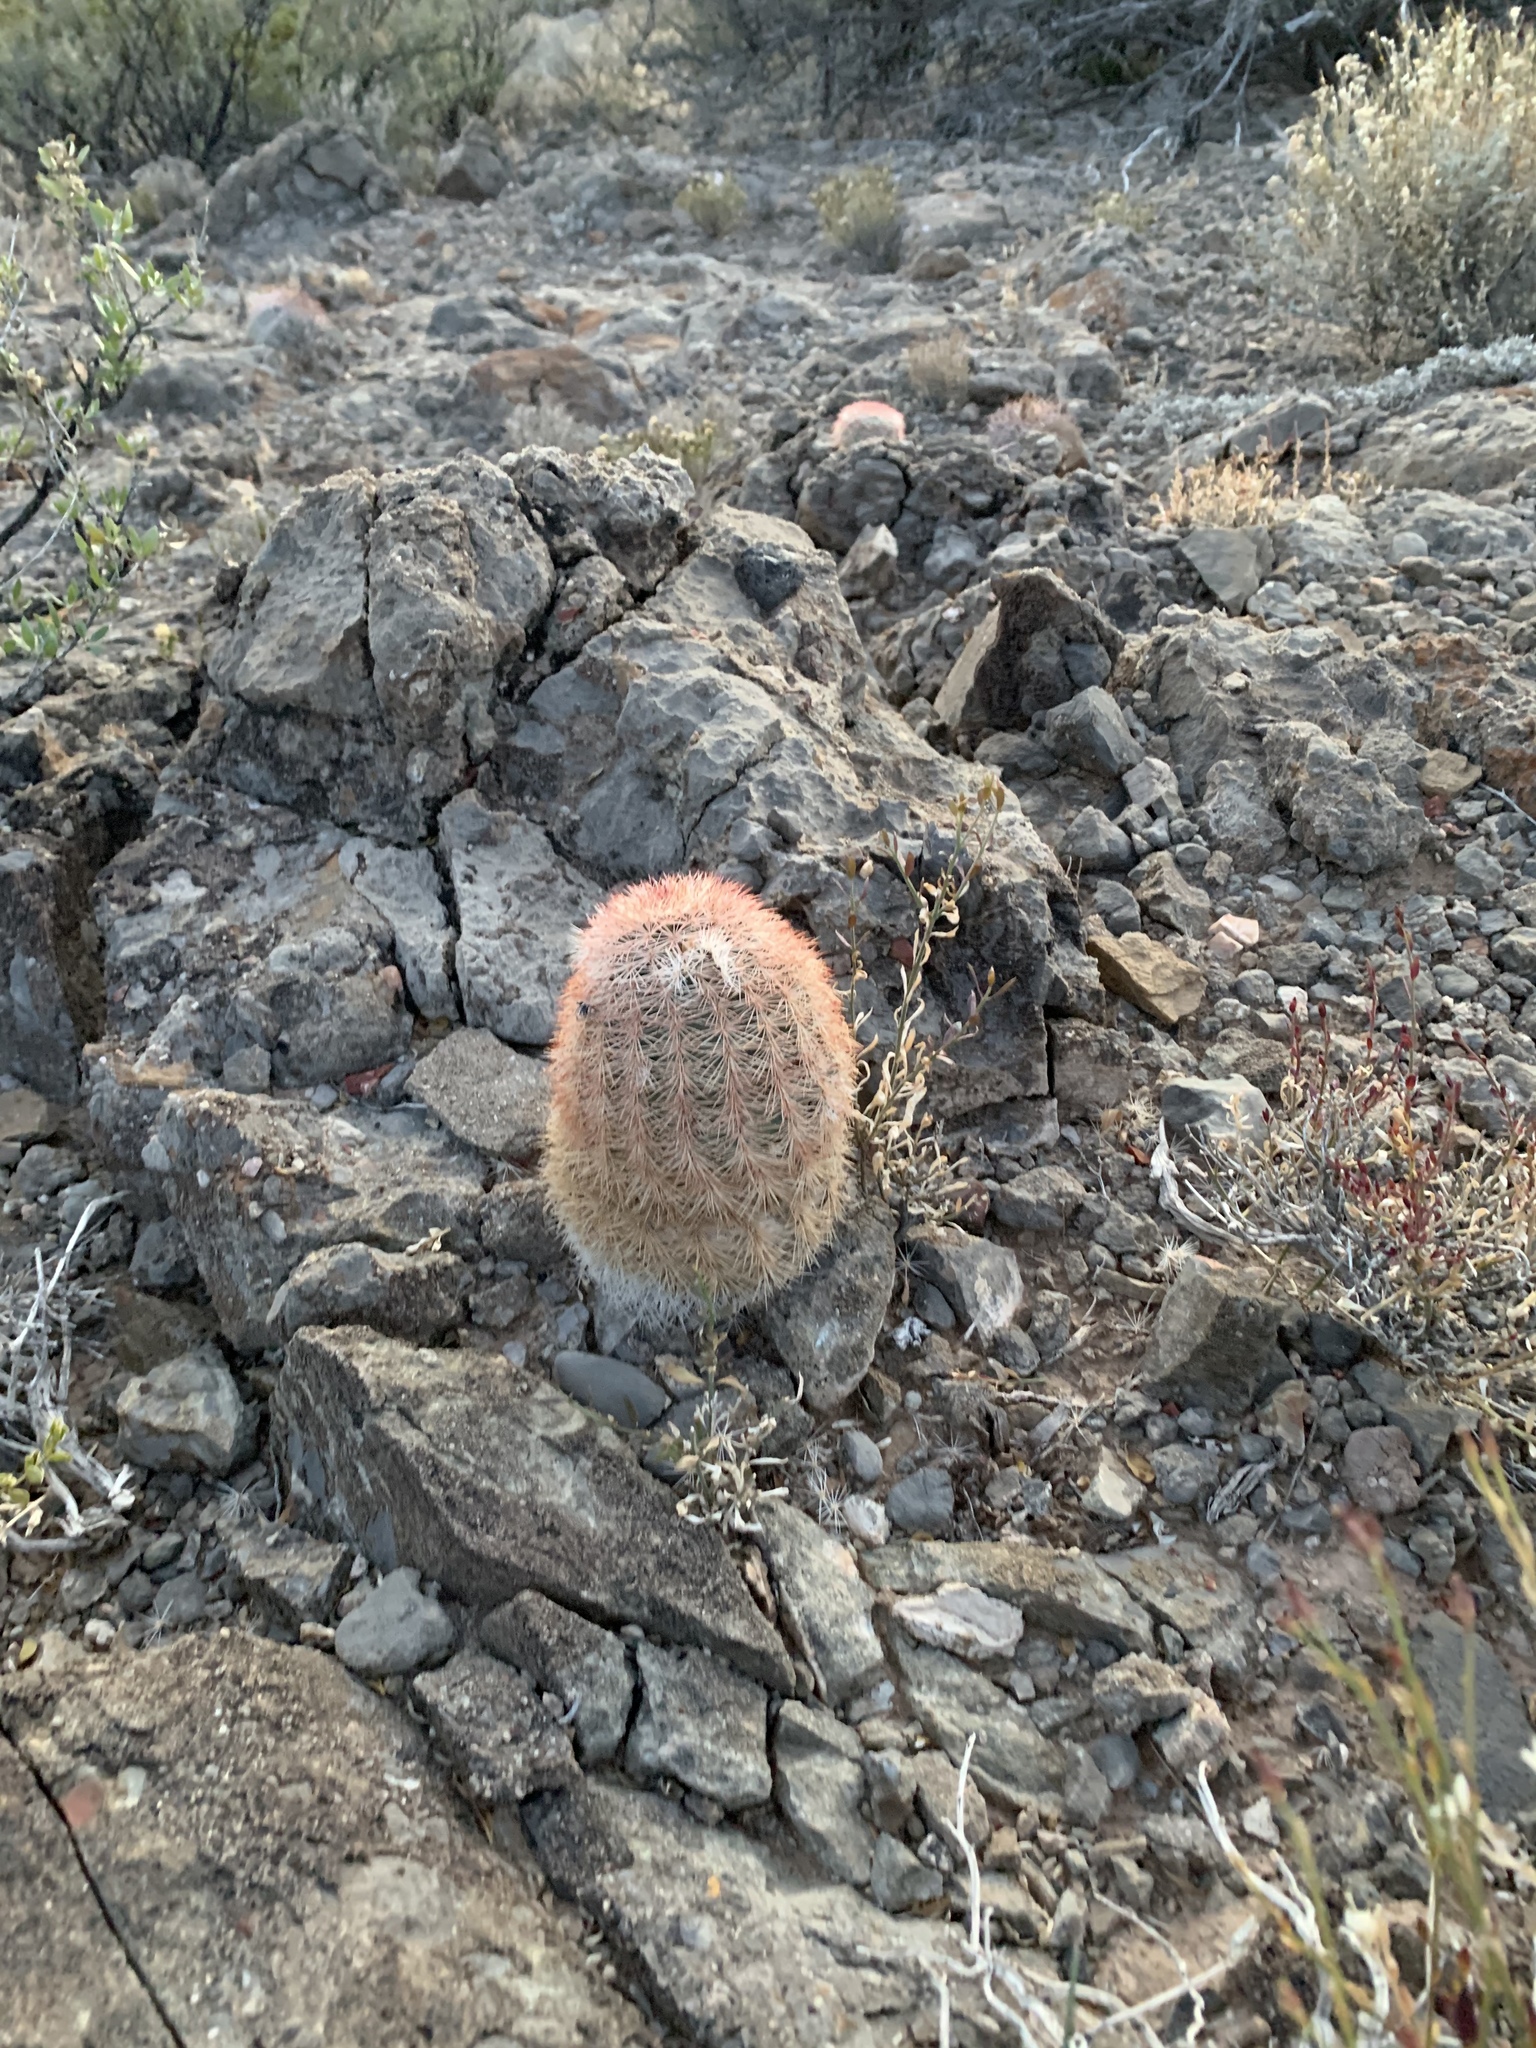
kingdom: Plantae
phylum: Tracheophyta
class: Magnoliopsida
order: Caryophyllales
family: Cactaceae
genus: Echinocereus
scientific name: Echinocereus dasyacanthus
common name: Spiny hedgehog cactus
